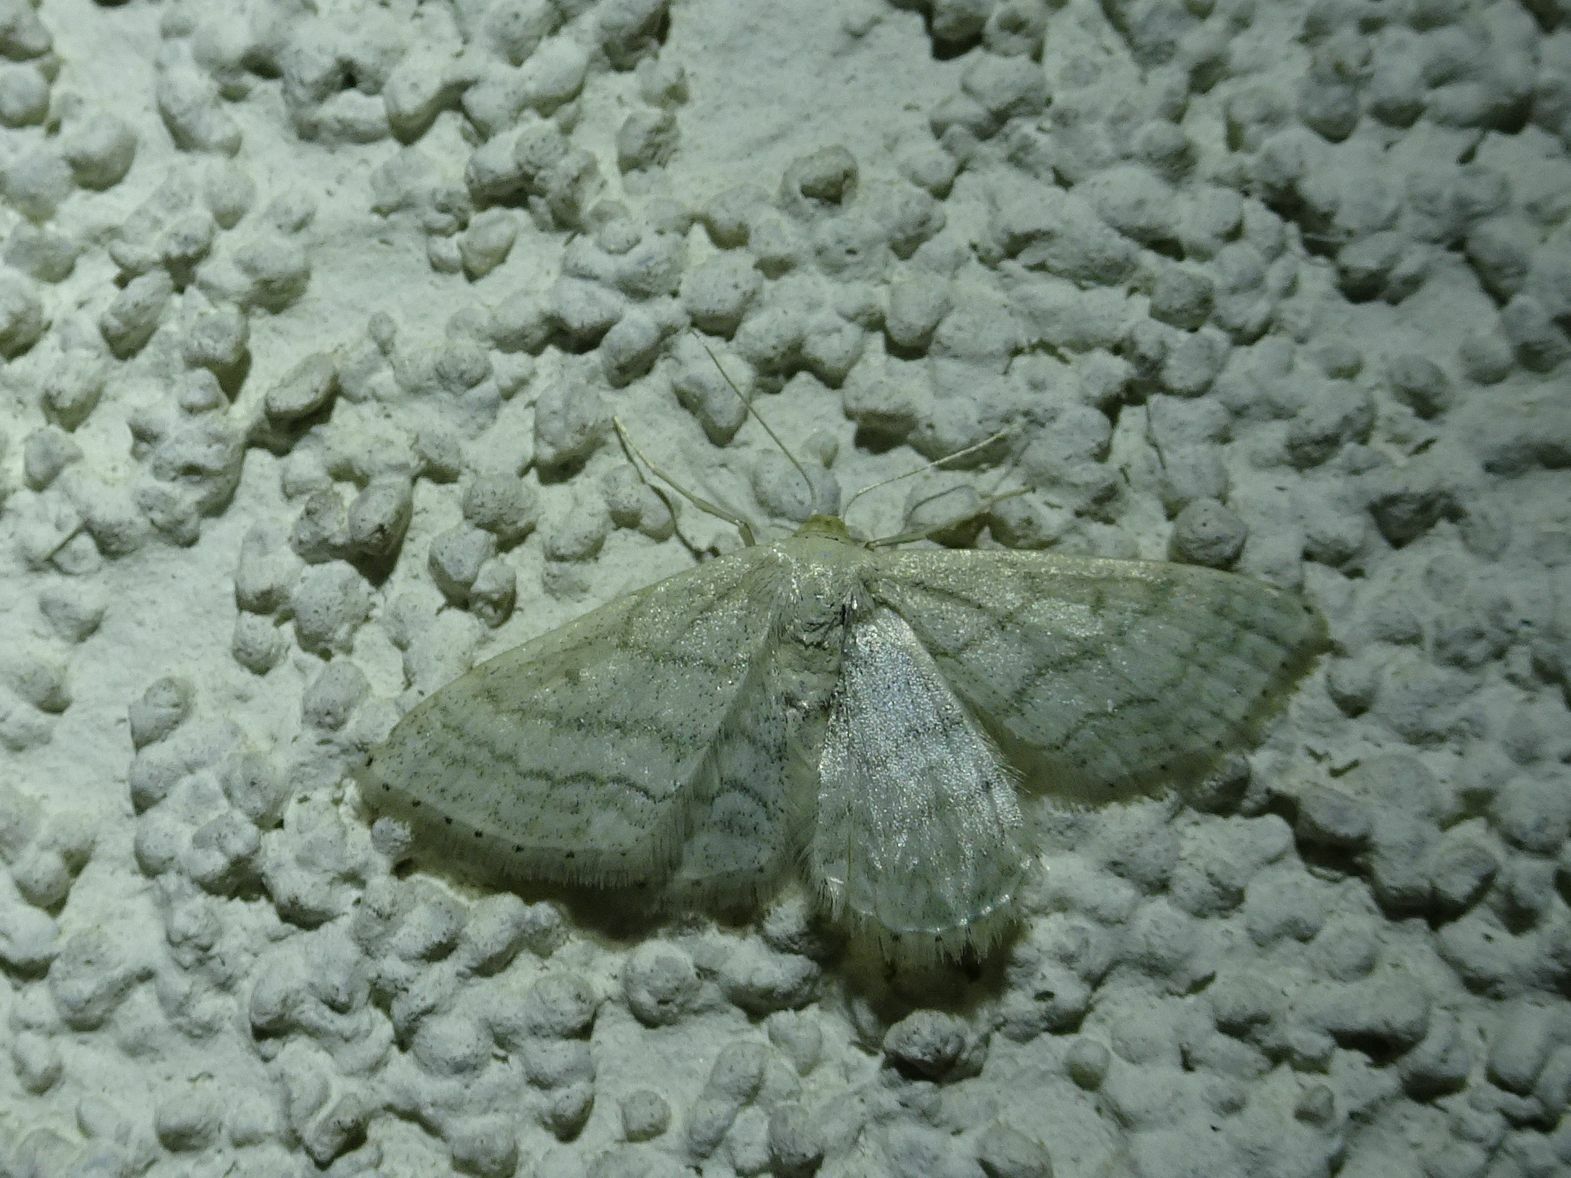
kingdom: Animalia
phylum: Arthropoda
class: Insecta
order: Lepidoptera
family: Geometridae
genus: Idaea
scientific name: Idaea subsericeata
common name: Satin wave
